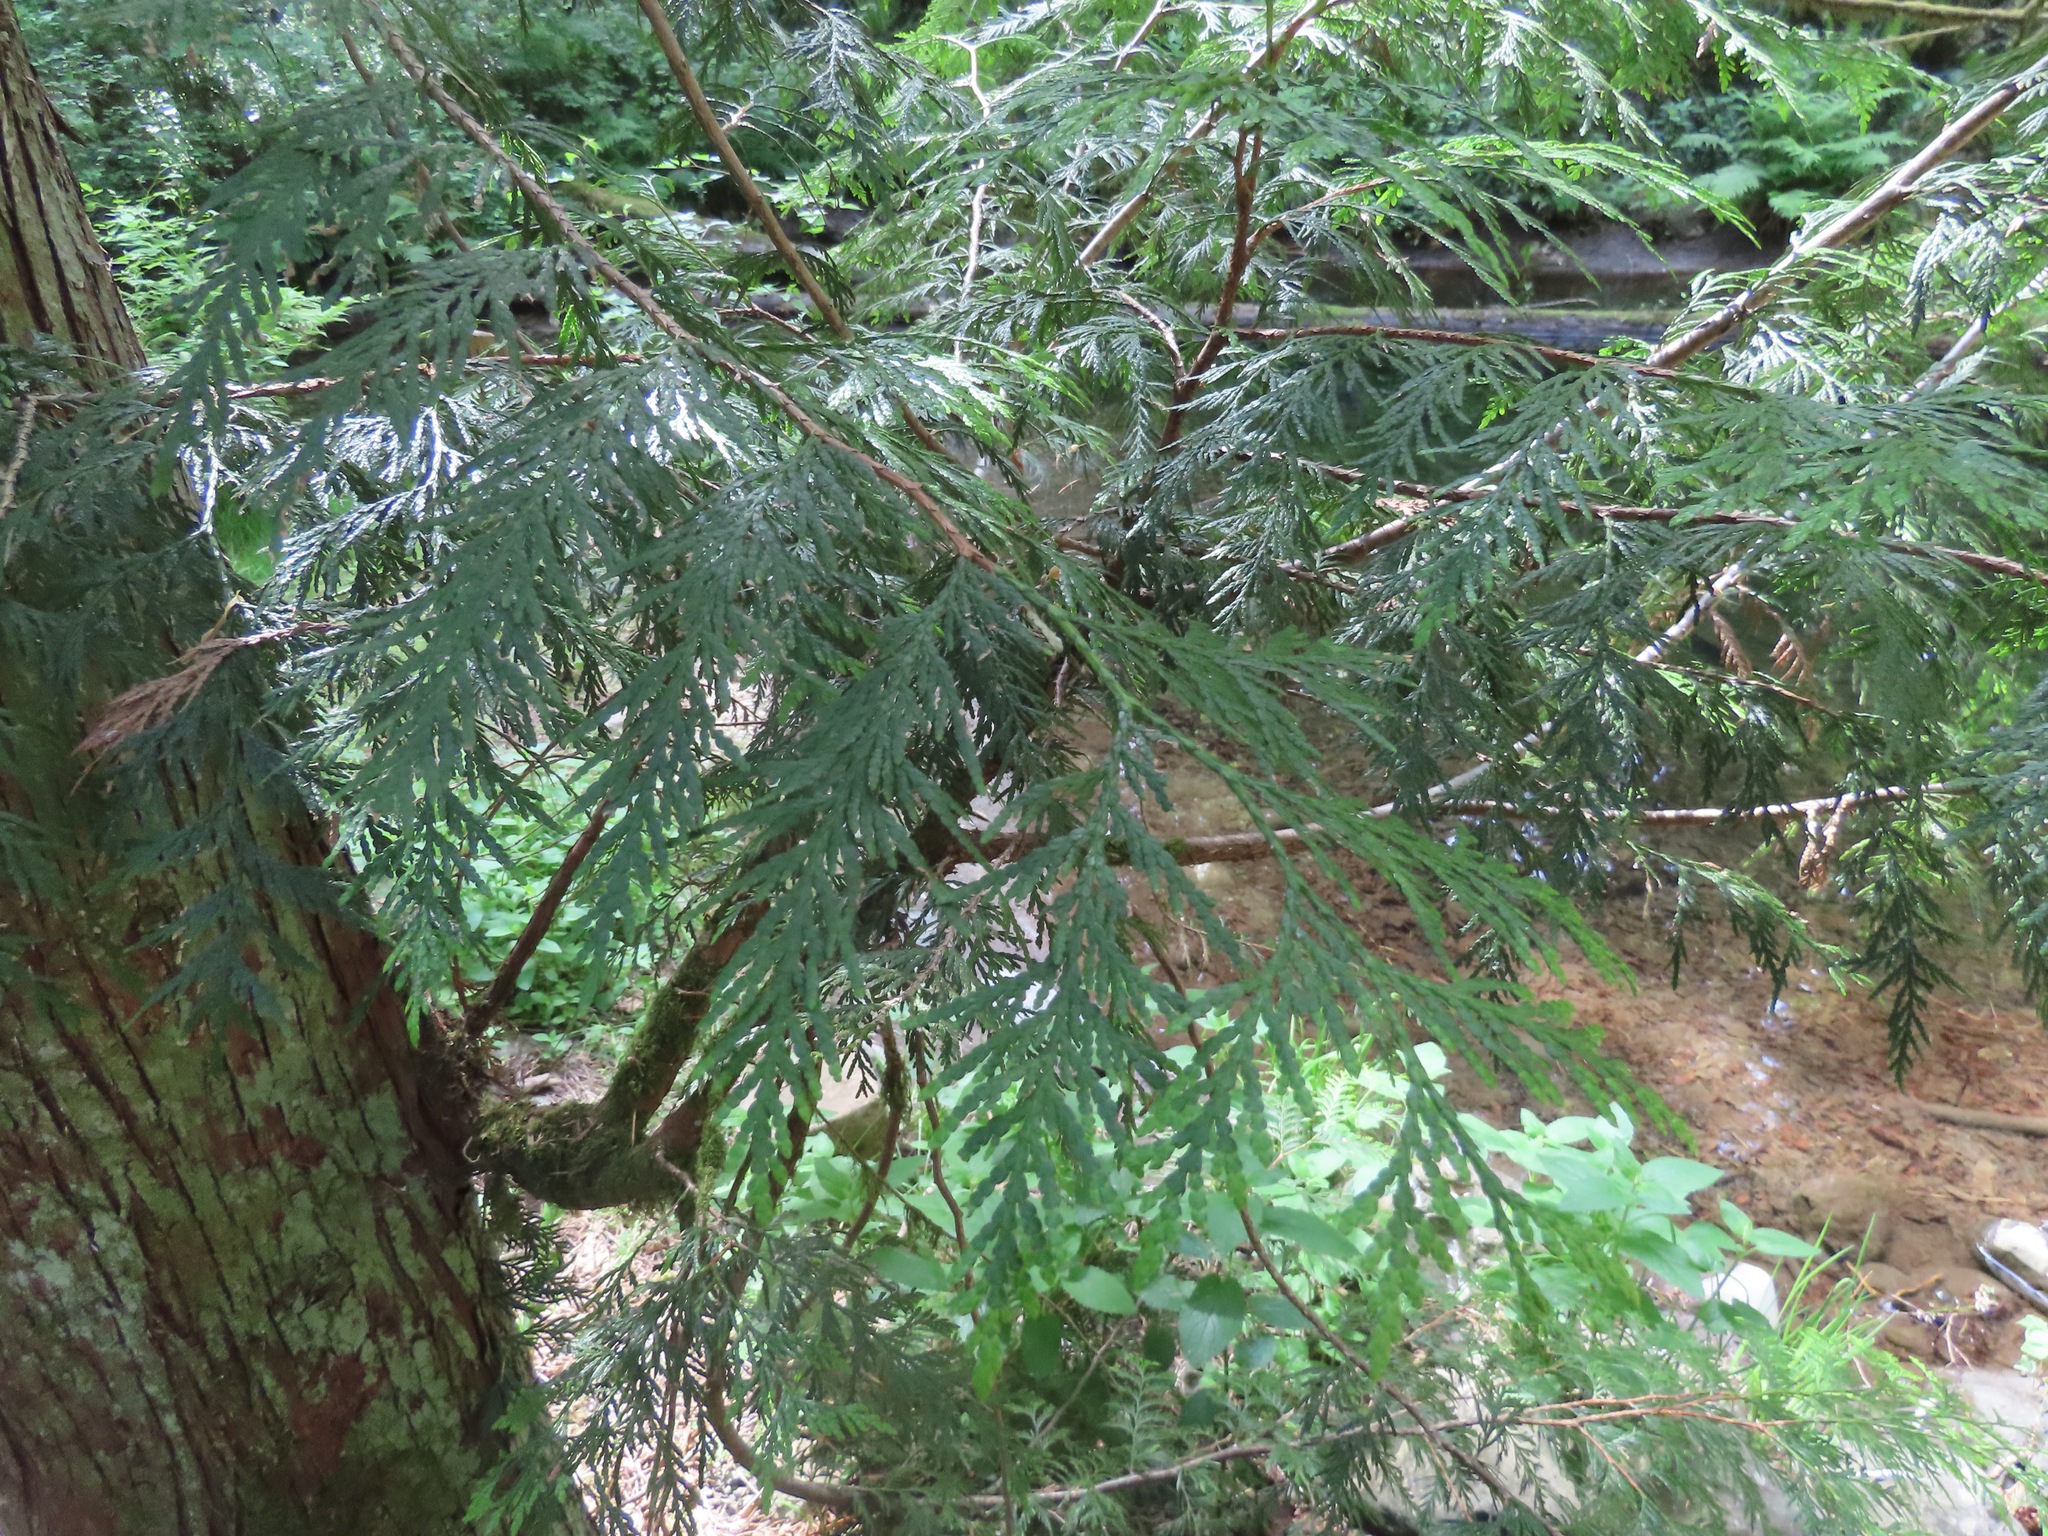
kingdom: Plantae
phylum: Tracheophyta
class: Pinopsida
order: Pinales
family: Cupressaceae
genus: Thuja
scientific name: Thuja plicata
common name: Western red-cedar
